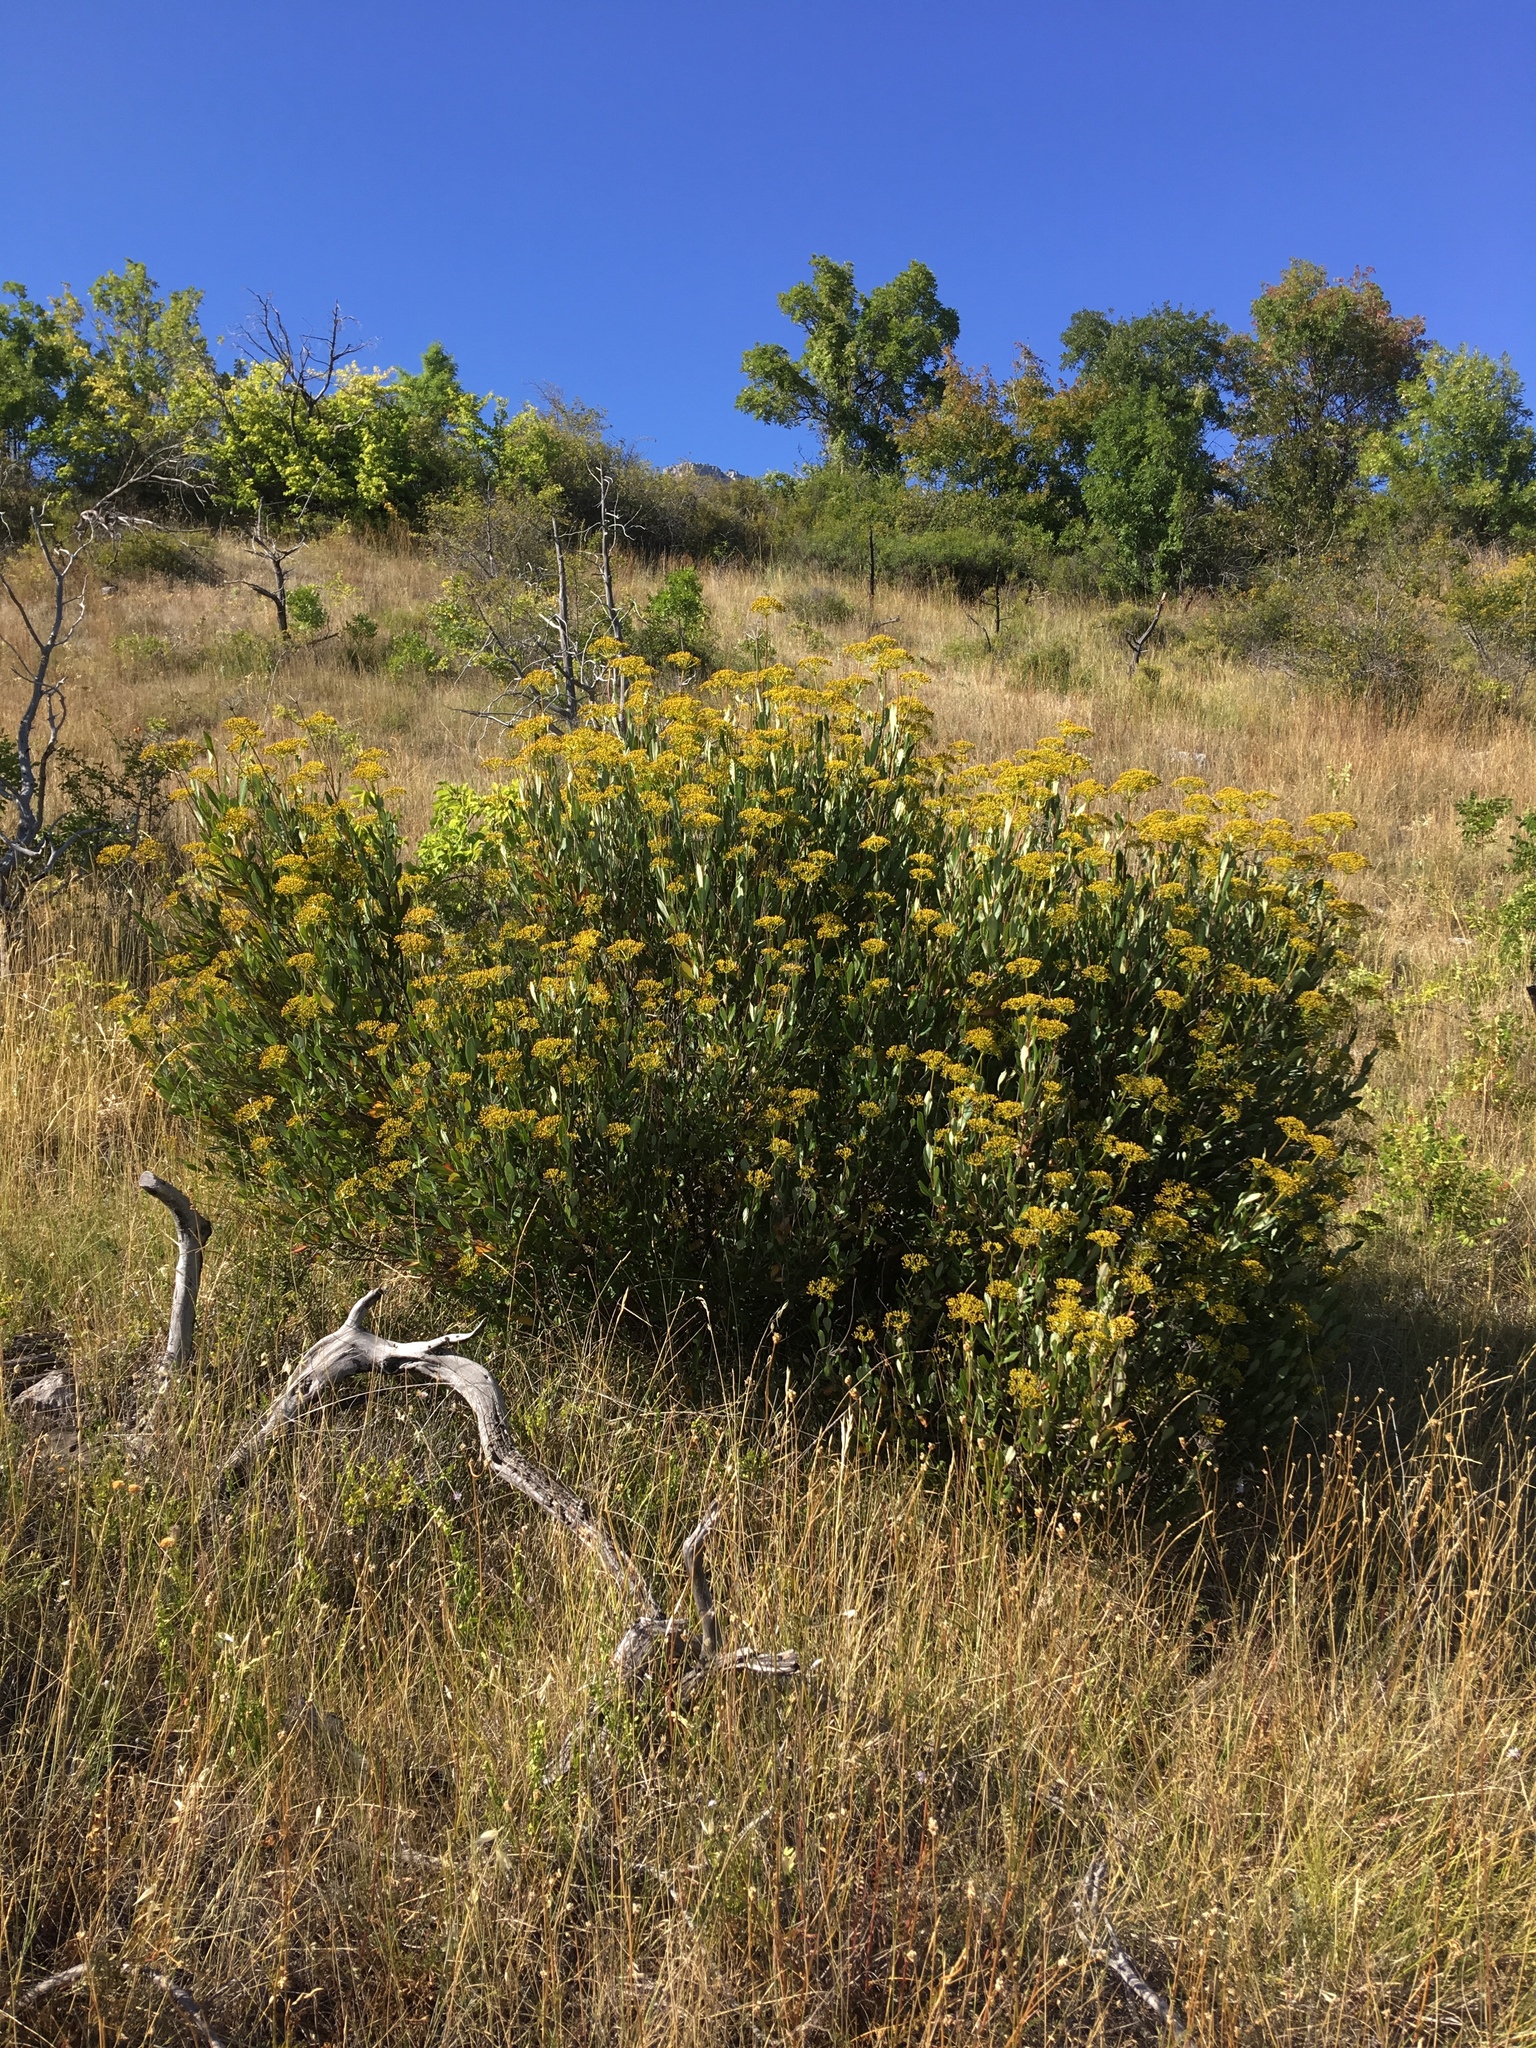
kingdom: Plantae
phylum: Tracheophyta
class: Magnoliopsida
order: Apiales
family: Apiaceae
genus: Bupleurum
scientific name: Bupleurum fruticosum
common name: Shrubby hare's-ear
